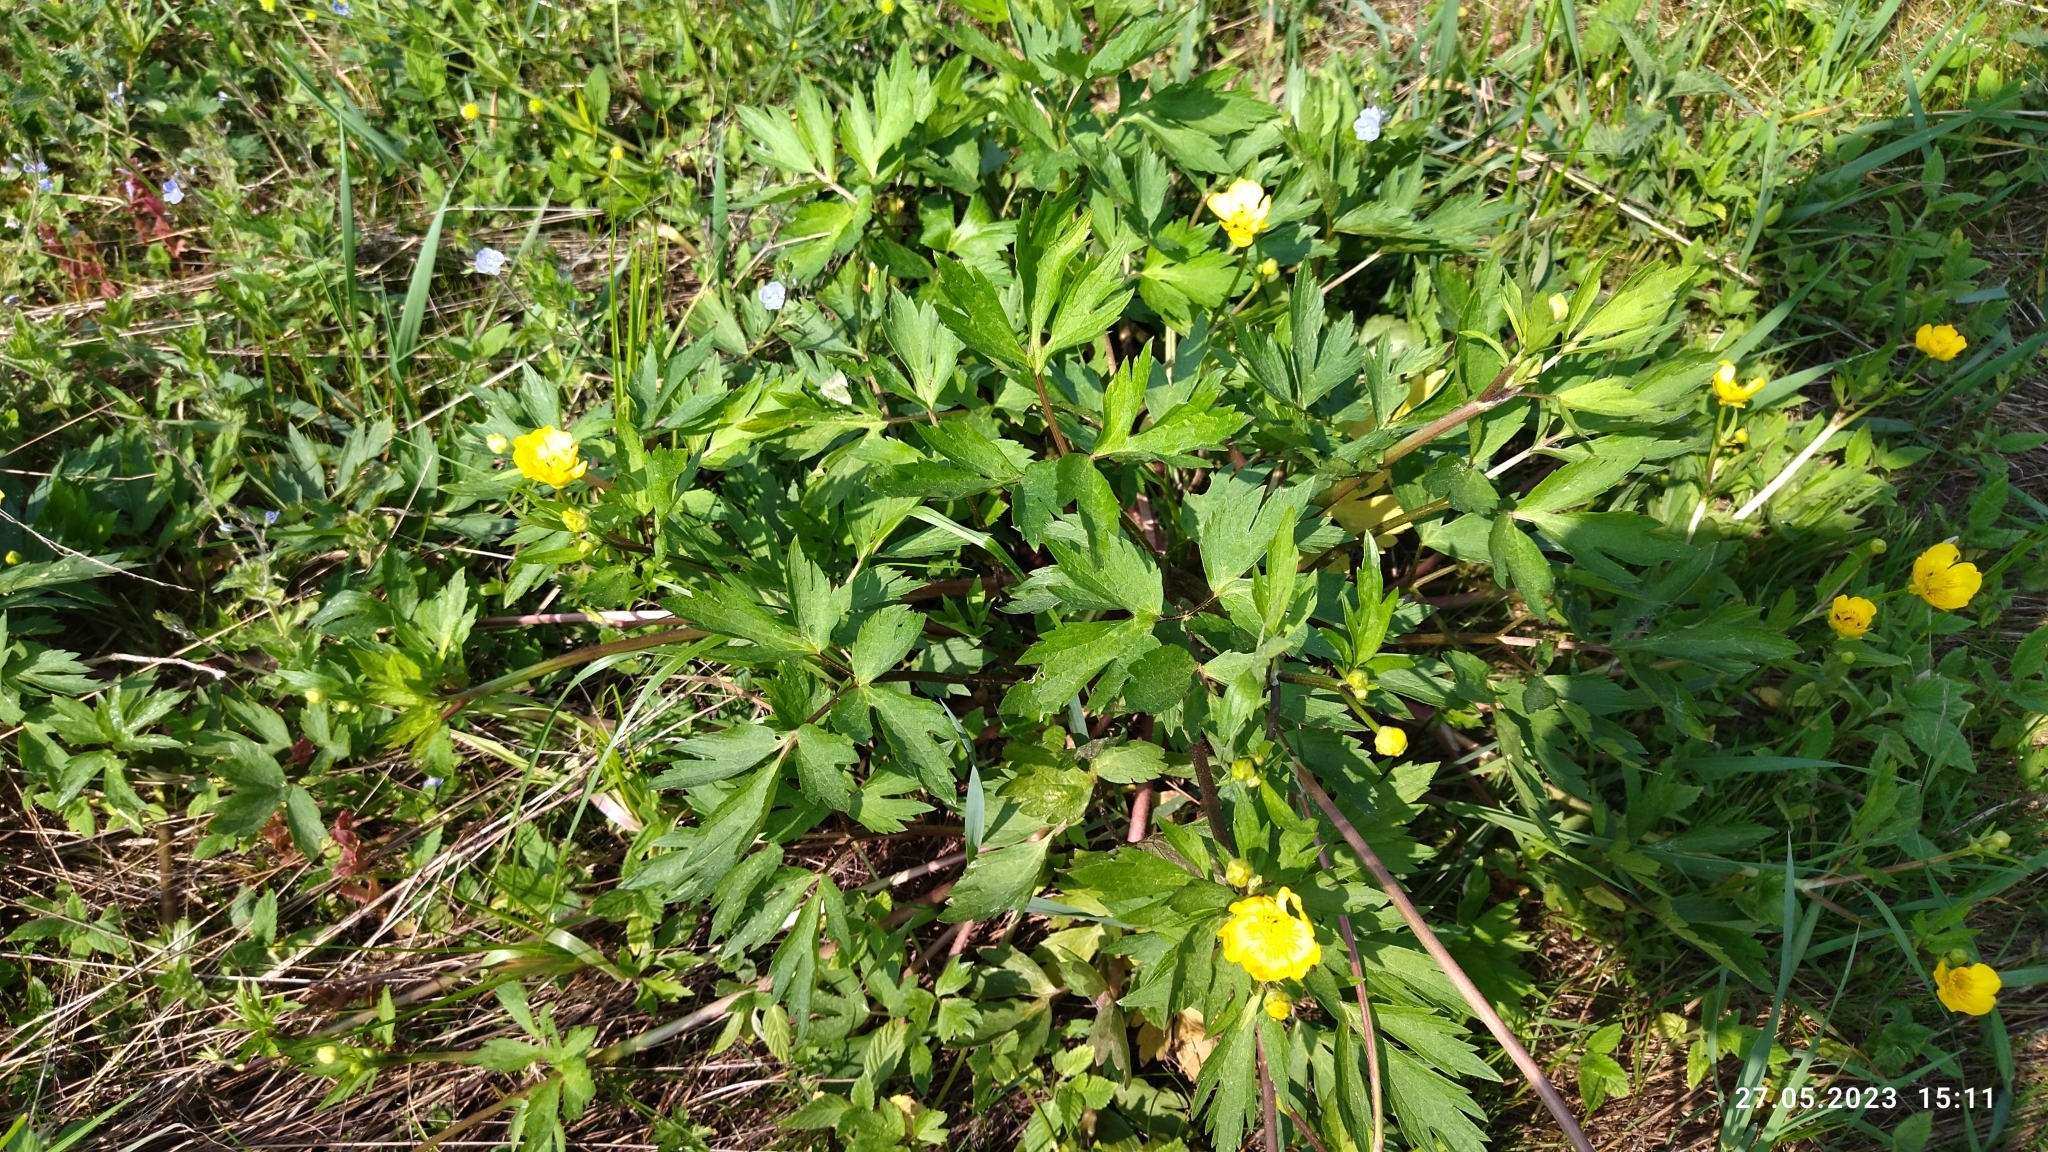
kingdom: Plantae
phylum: Tracheophyta
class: Magnoliopsida
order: Ranunculales
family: Ranunculaceae
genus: Ranunculus
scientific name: Ranunculus repens
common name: Creeping buttercup
